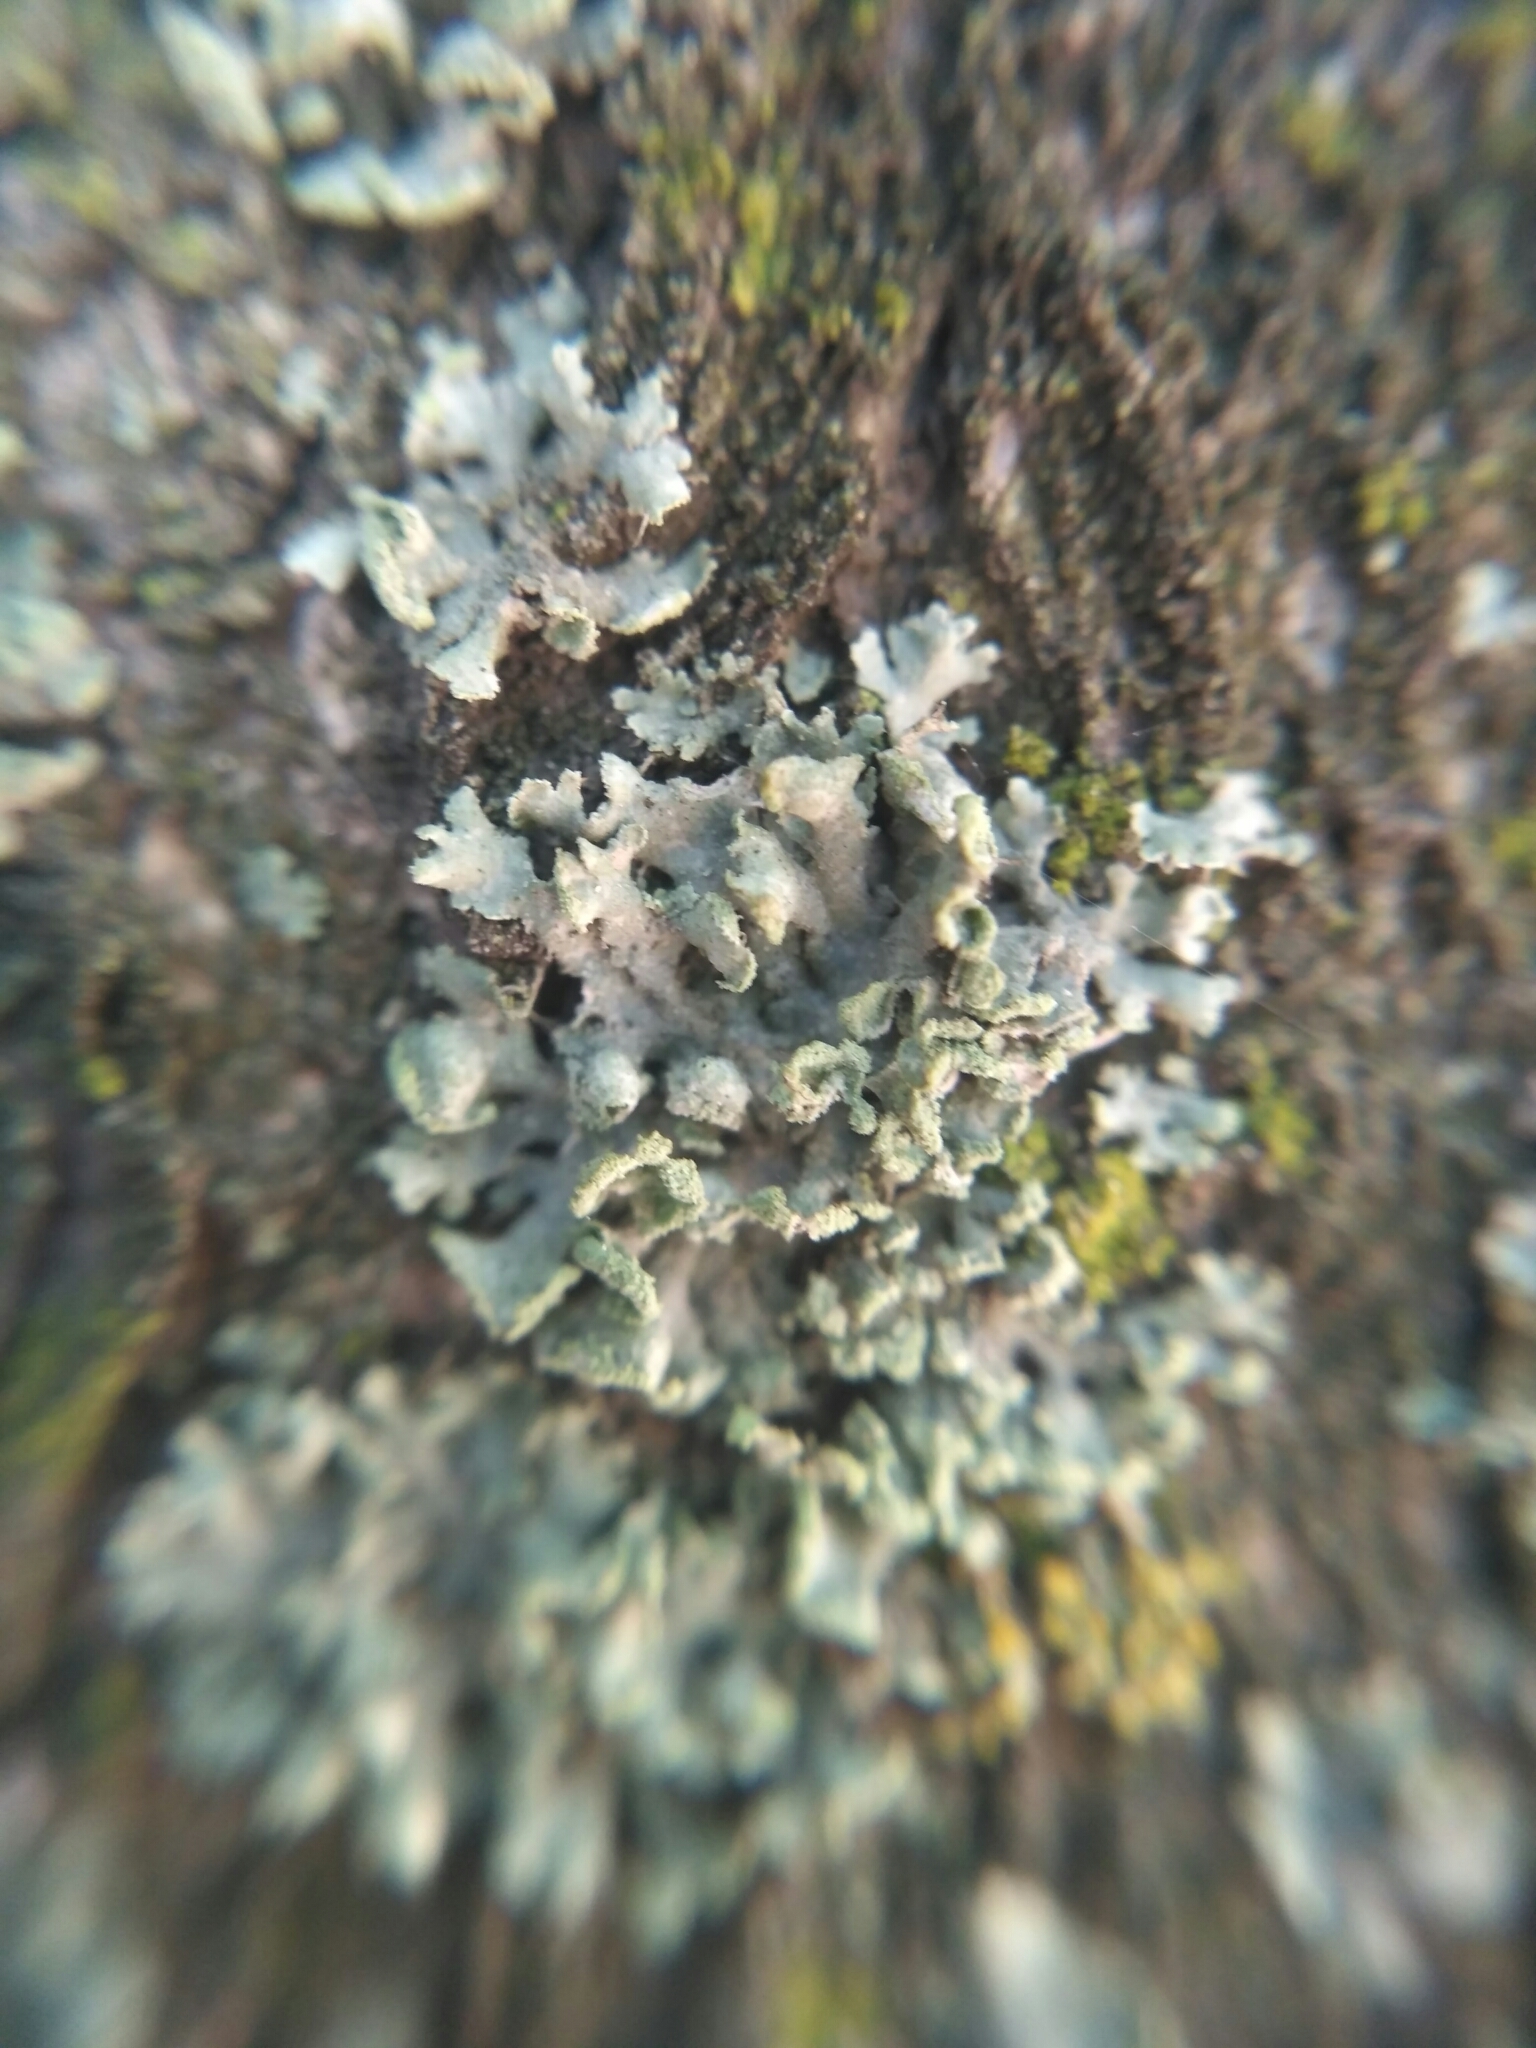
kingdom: Fungi
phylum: Ascomycota
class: Lecanoromycetes
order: Caliciales
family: Physciaceae
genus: Physcia
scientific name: Physcia tenella
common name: Fringed rosette lichen
